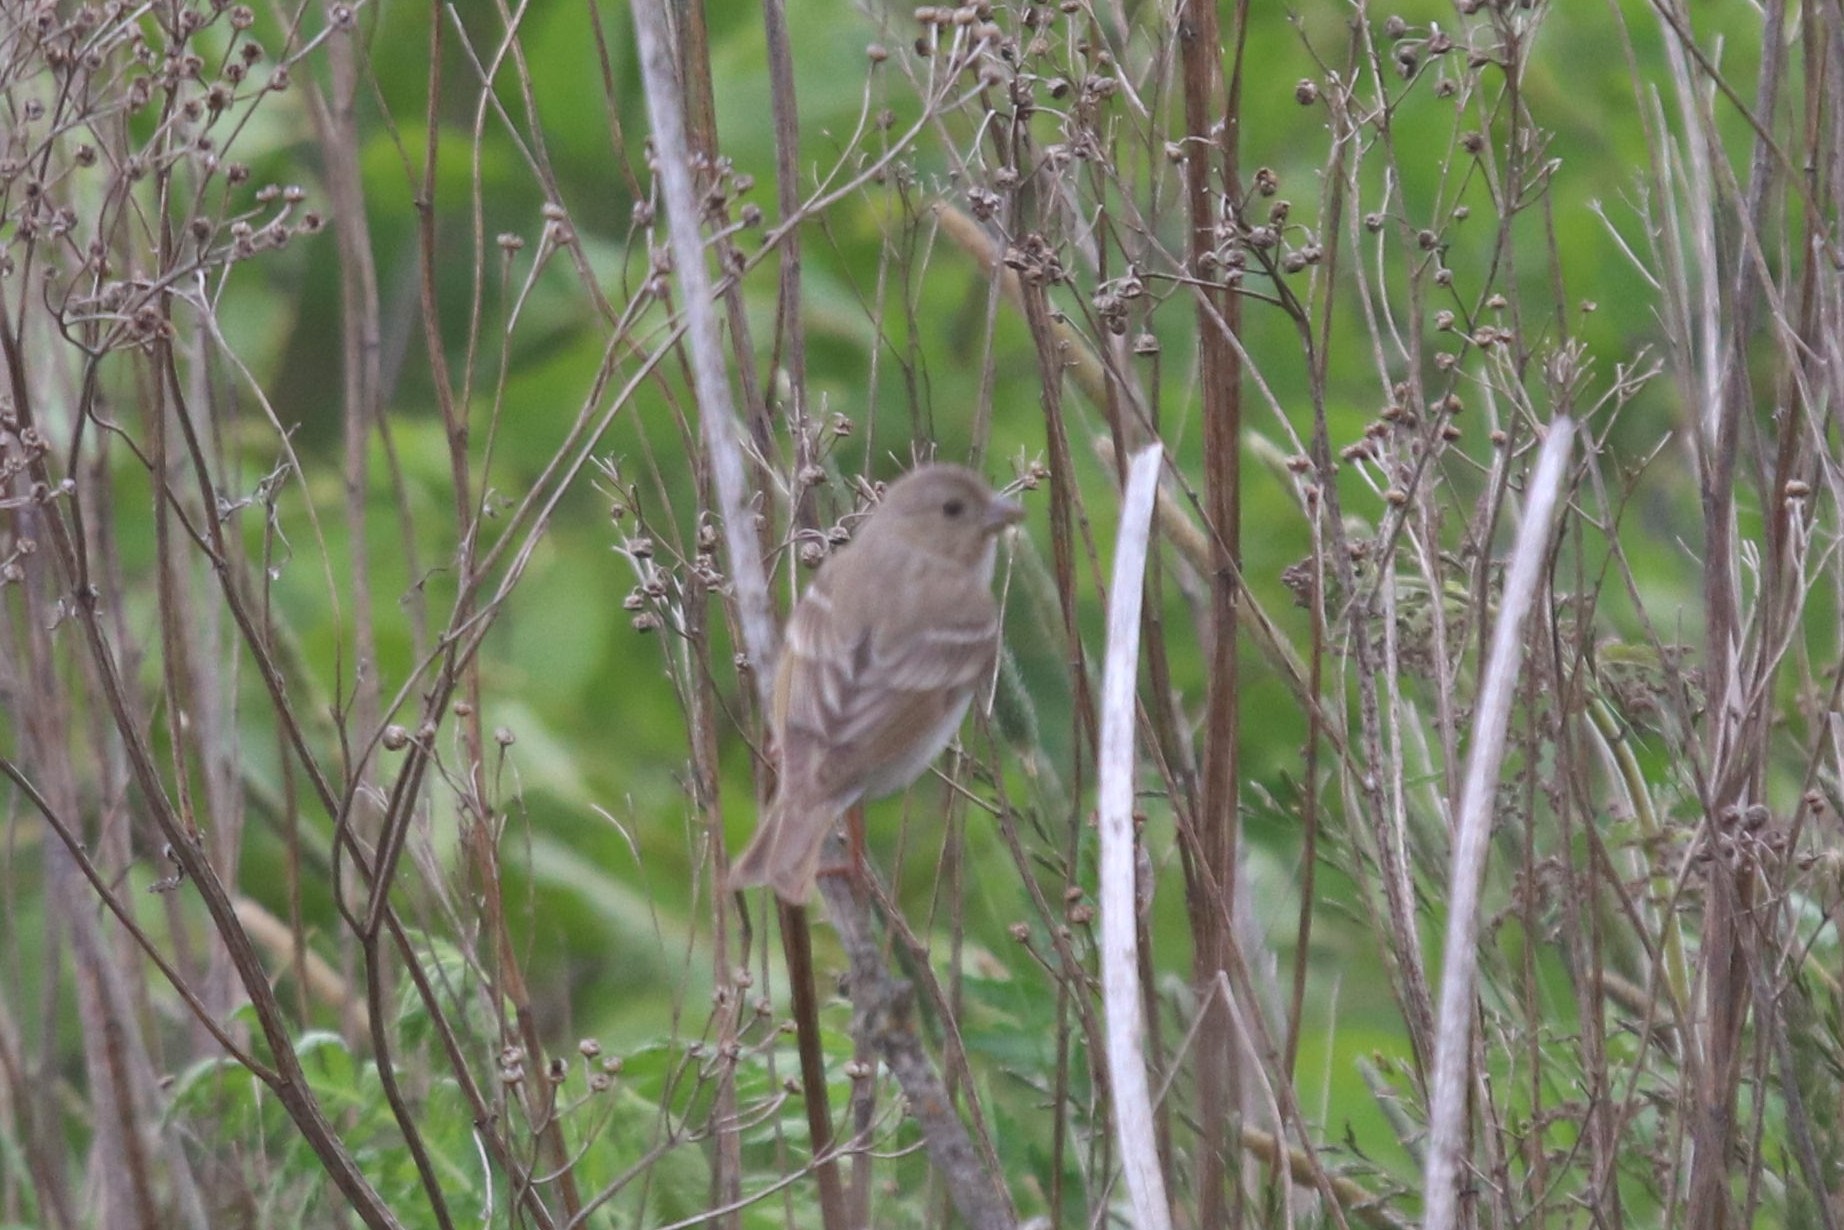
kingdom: Animalia
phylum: Chordata
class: Aves
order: Passeriformes
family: Fringillidae
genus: Carpodacus
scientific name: Carpodacus erythrinus
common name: Common rosefinch
